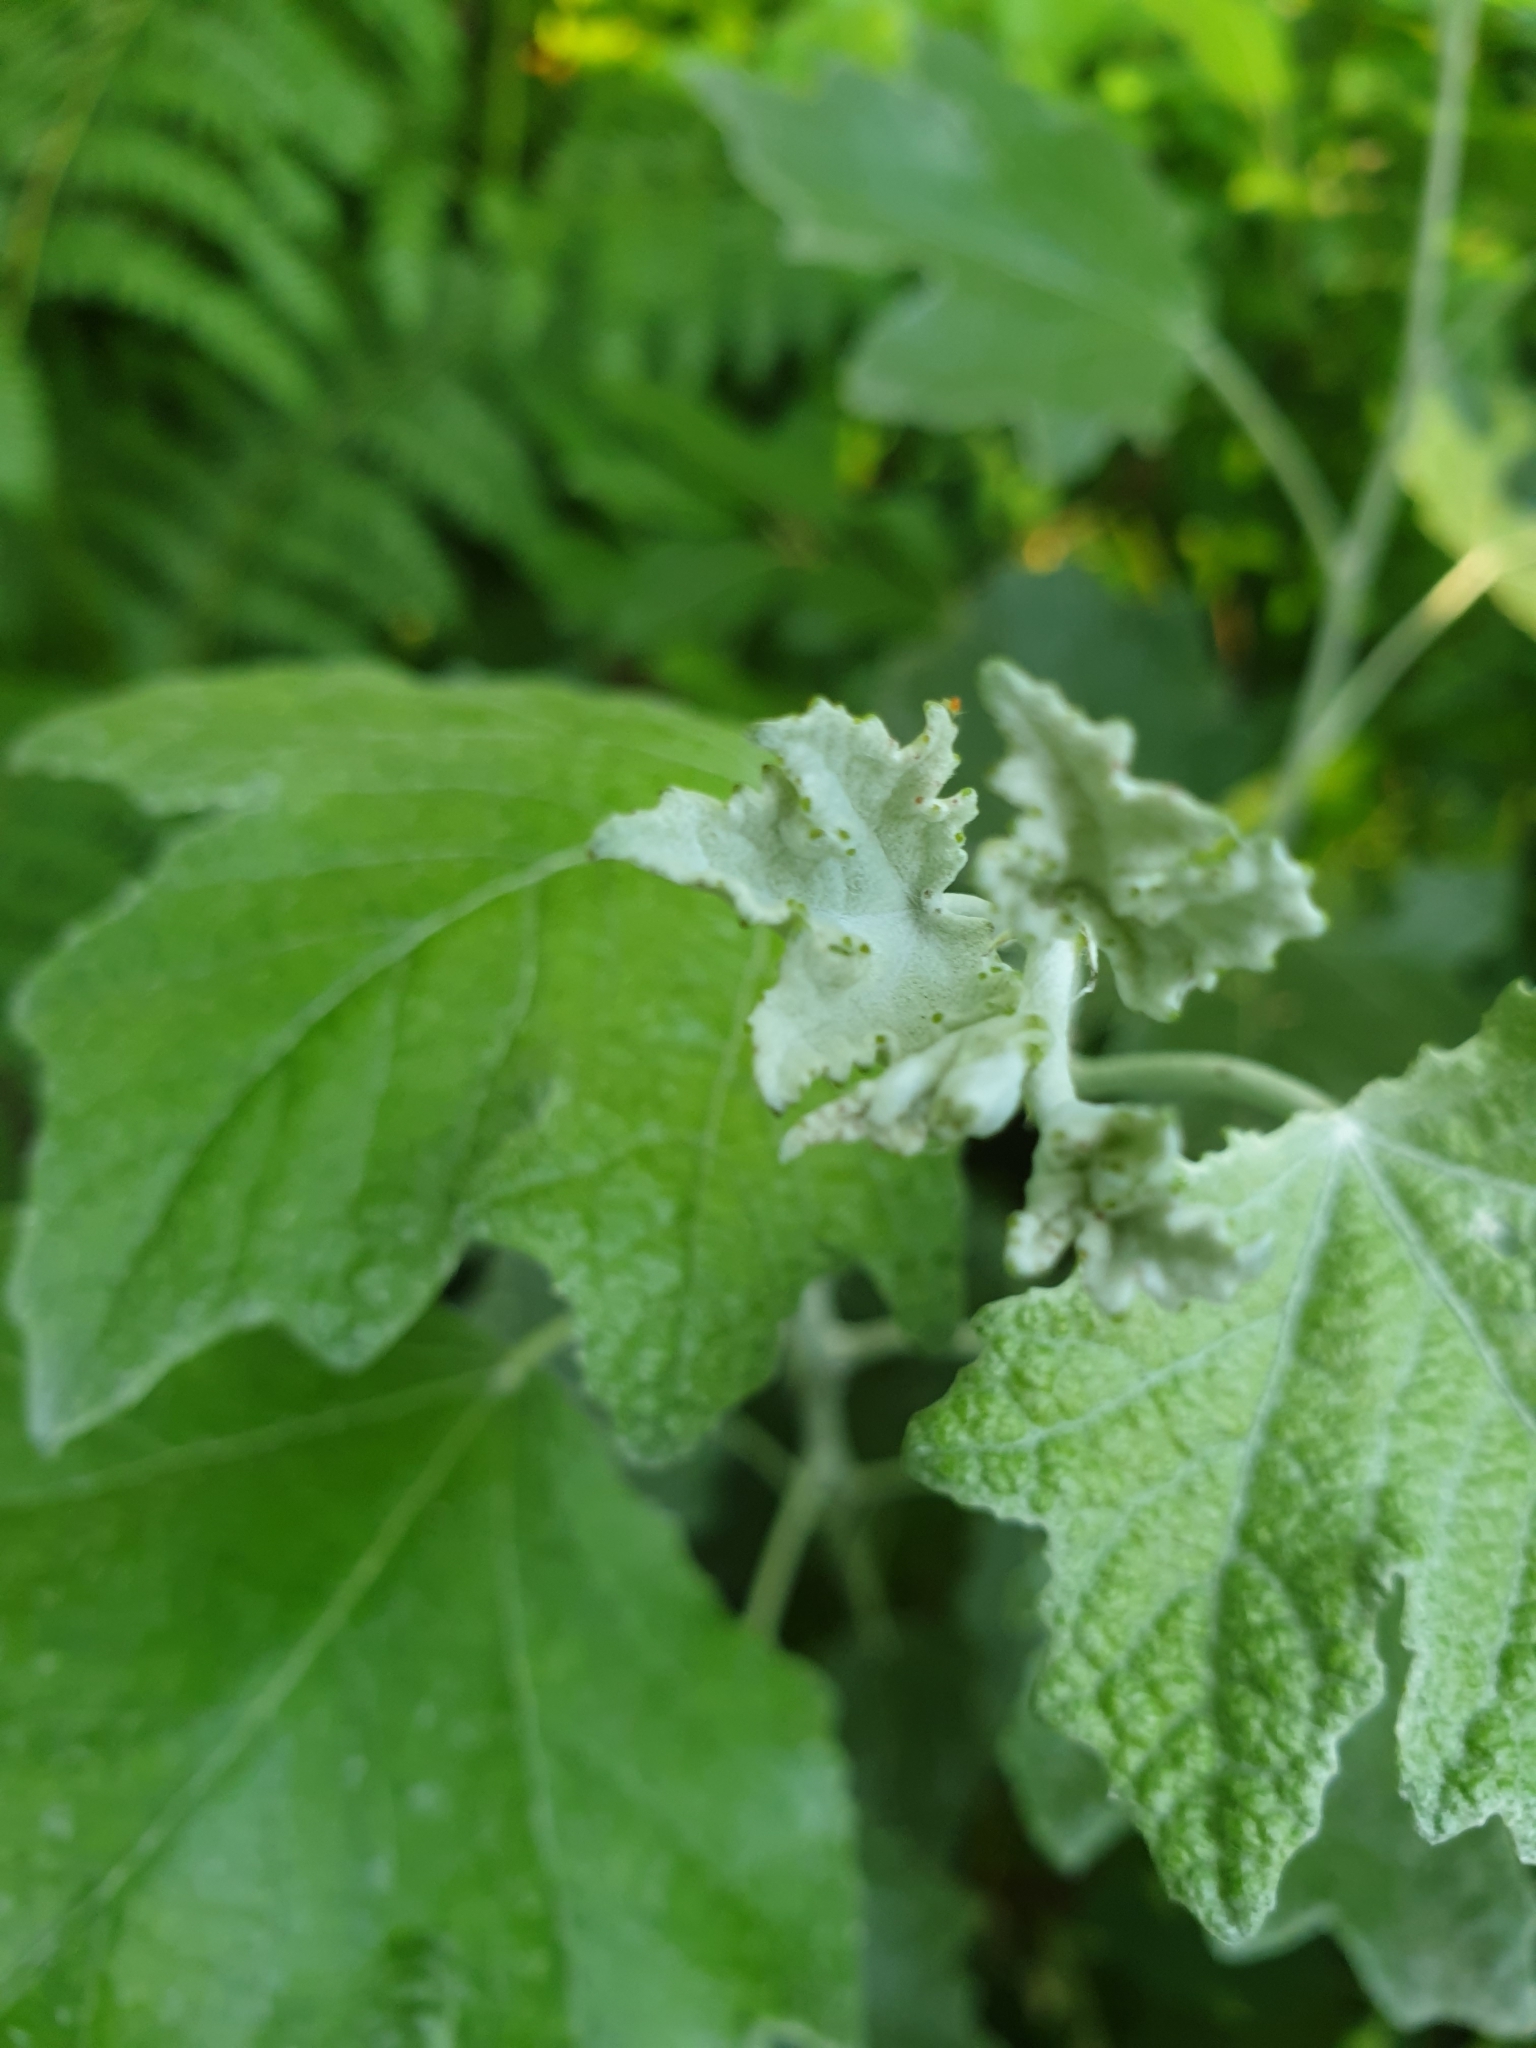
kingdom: Plantae
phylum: Tracheophyta
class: Magnoliopsida
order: Malpighiales
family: Salicaceae
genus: Populus
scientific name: Populus alba
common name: White poplar
